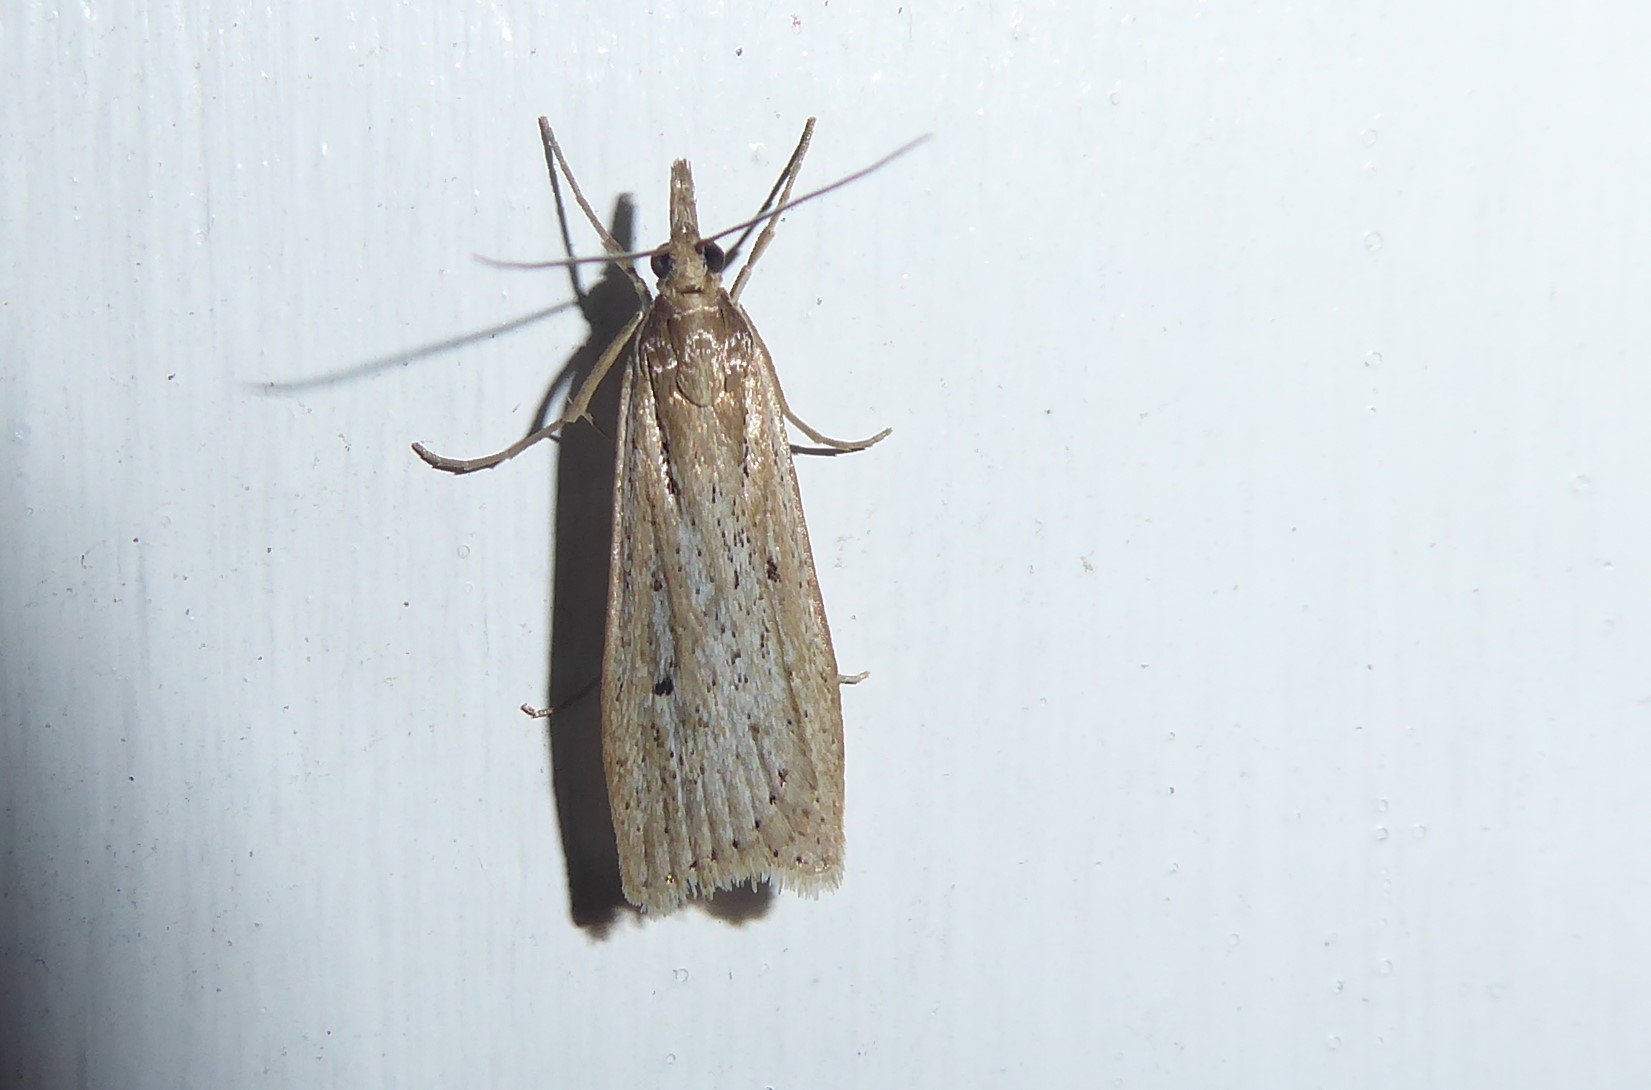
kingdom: Animalia
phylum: Arthropoda
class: Insecta
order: Lepidoptera
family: Crambidae
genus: Eudonia
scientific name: Eudonia sabulosella
